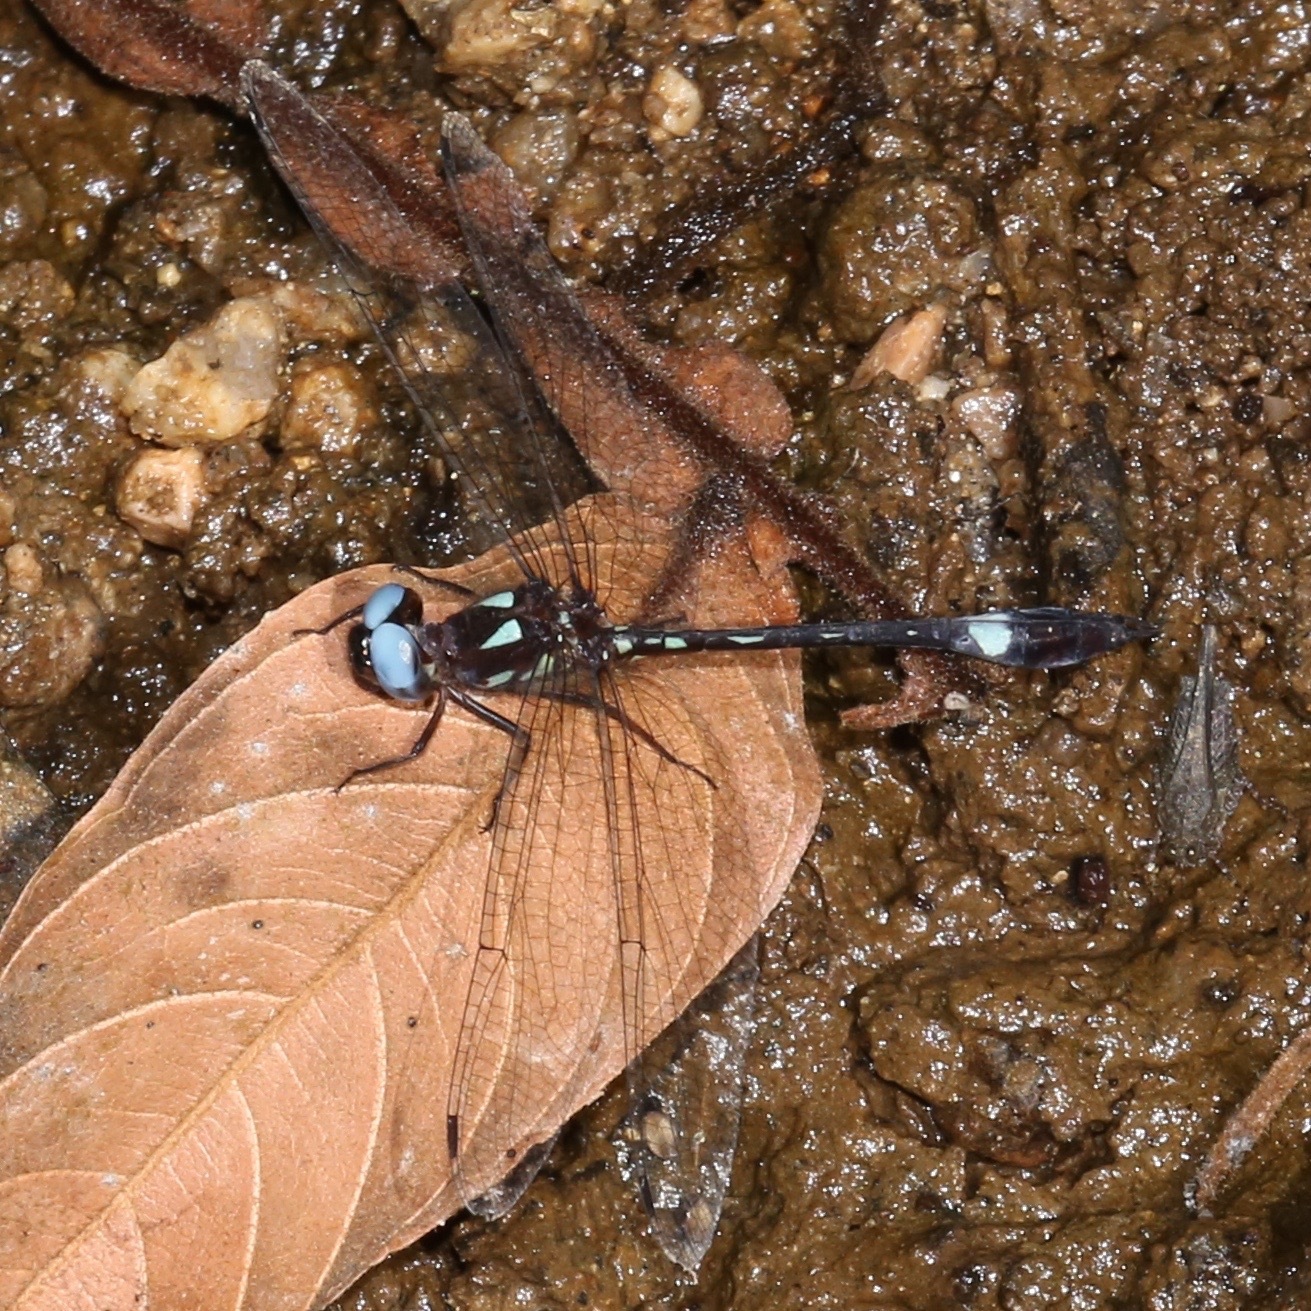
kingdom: Animalia
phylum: Arthropoda
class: Insecta
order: Odonata
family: Libellulidae
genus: Macrothemis
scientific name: Macrothemis pseudimitans
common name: White-tailed sylph
